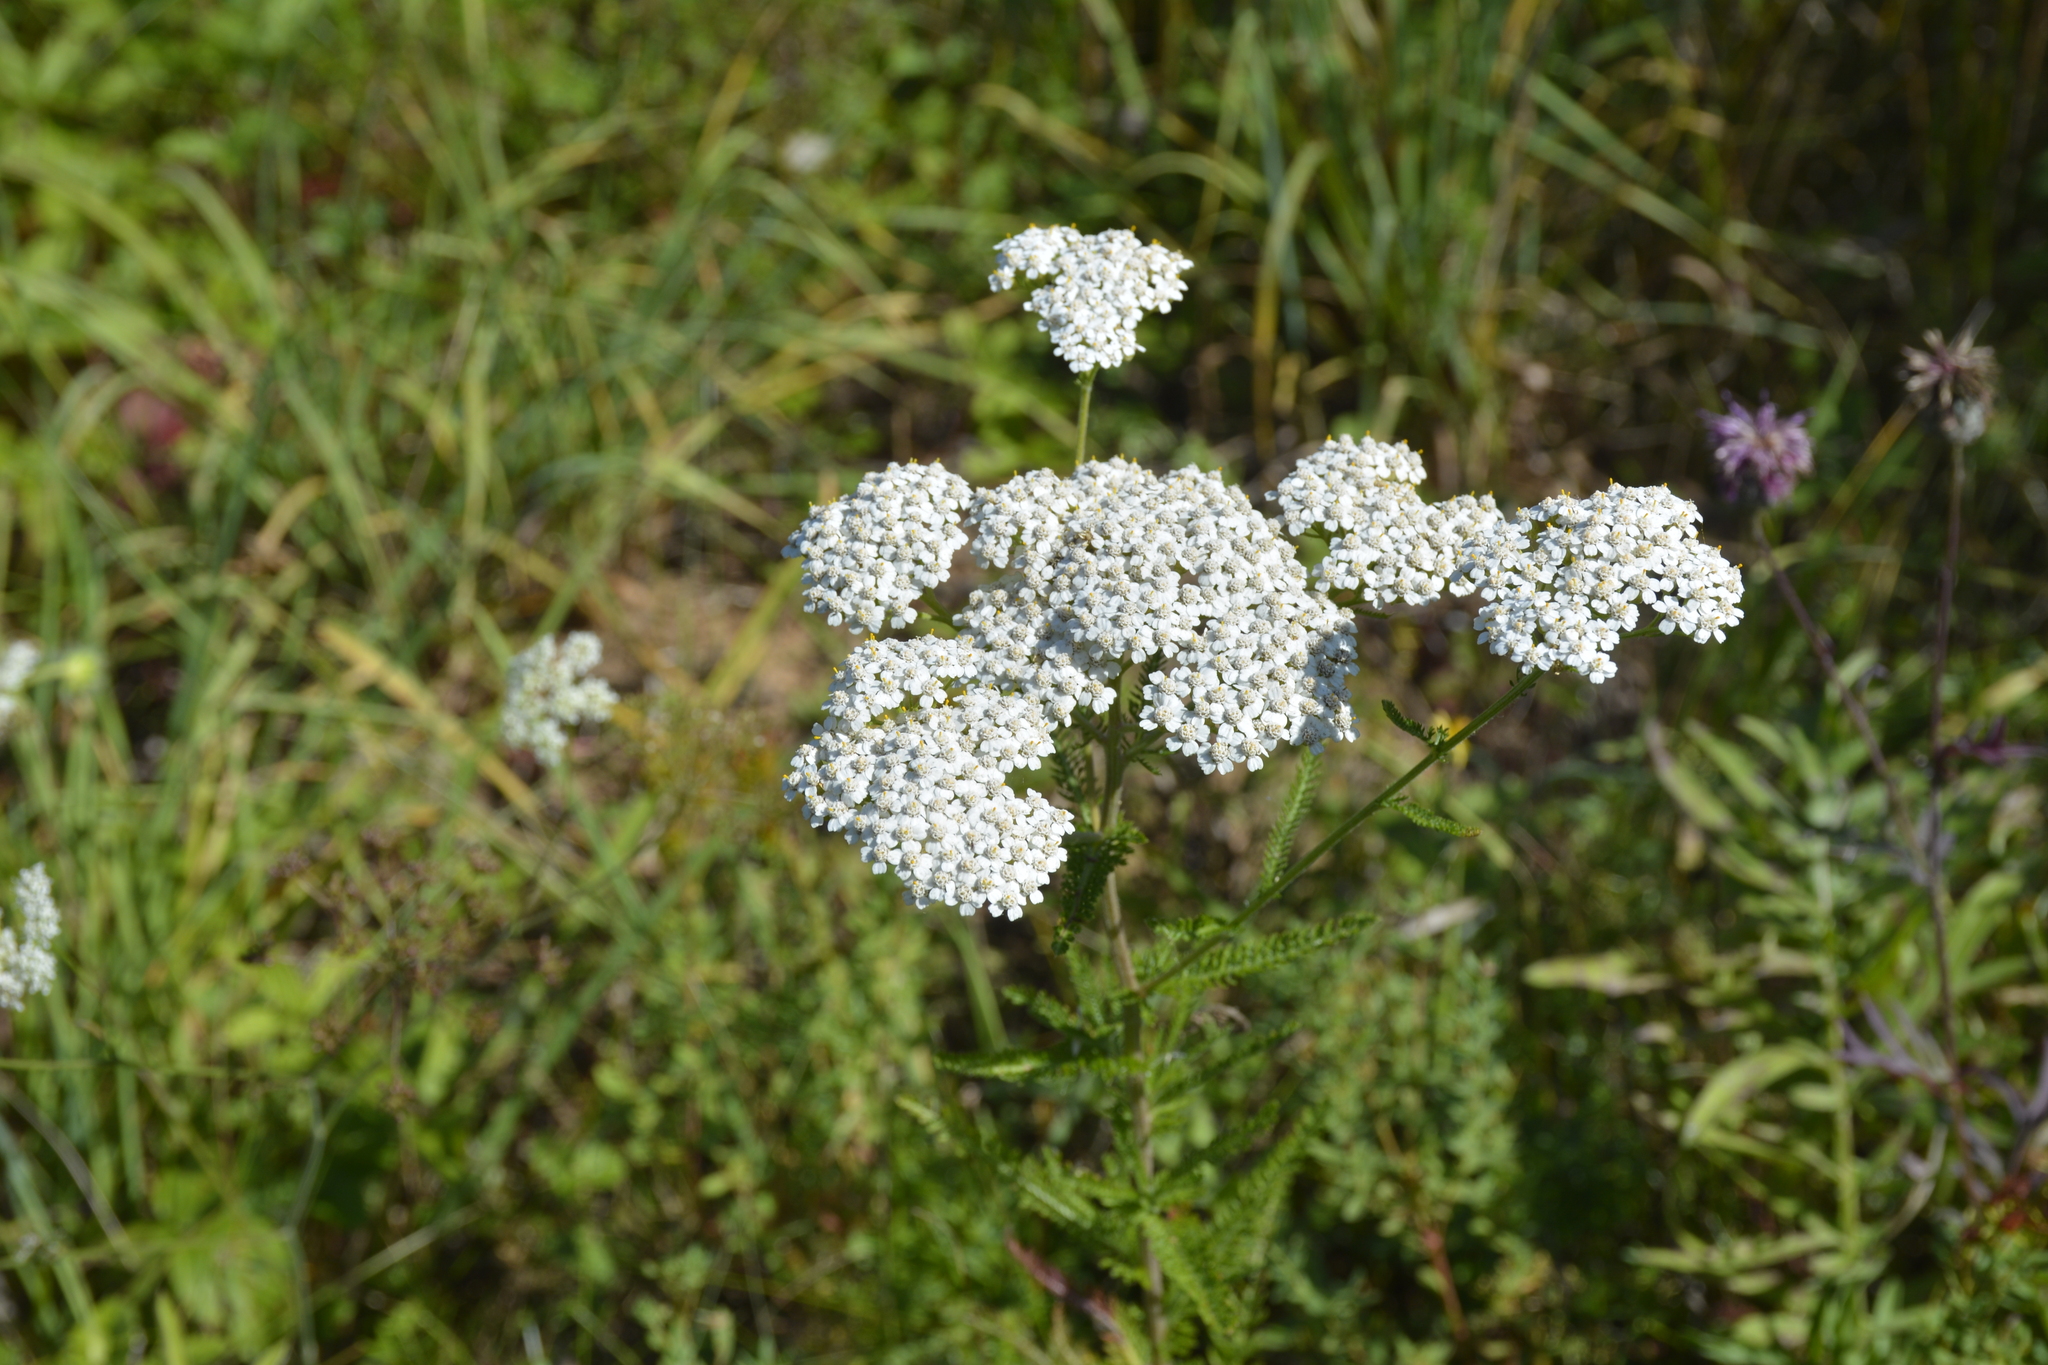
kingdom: Plantae
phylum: Tracheophyta
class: Magnoliopsida
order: Asterales
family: Asteraceae
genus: Achillea
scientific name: Achillea millefolium
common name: Yarrow
